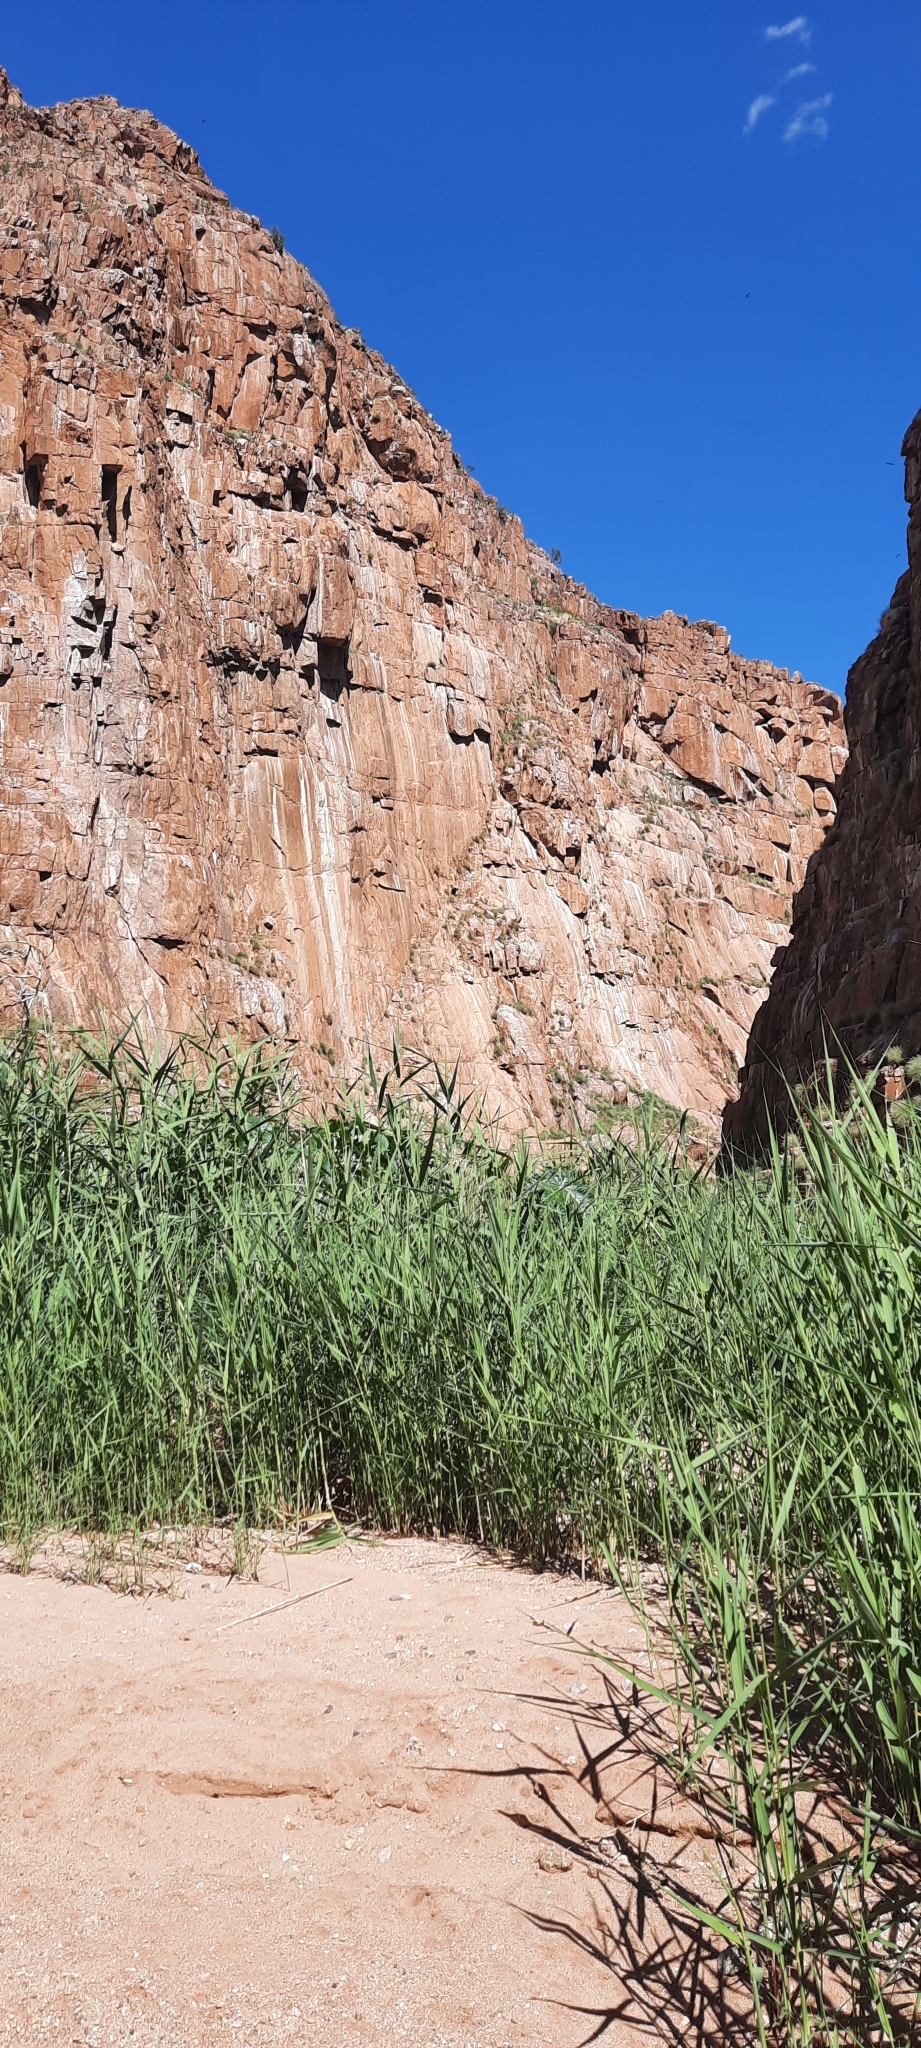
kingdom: Plantae
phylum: Tracheophyta
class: Liliopsida
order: Poales
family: Poaceae
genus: Phragmites
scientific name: Phragmites australis
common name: Common reed
